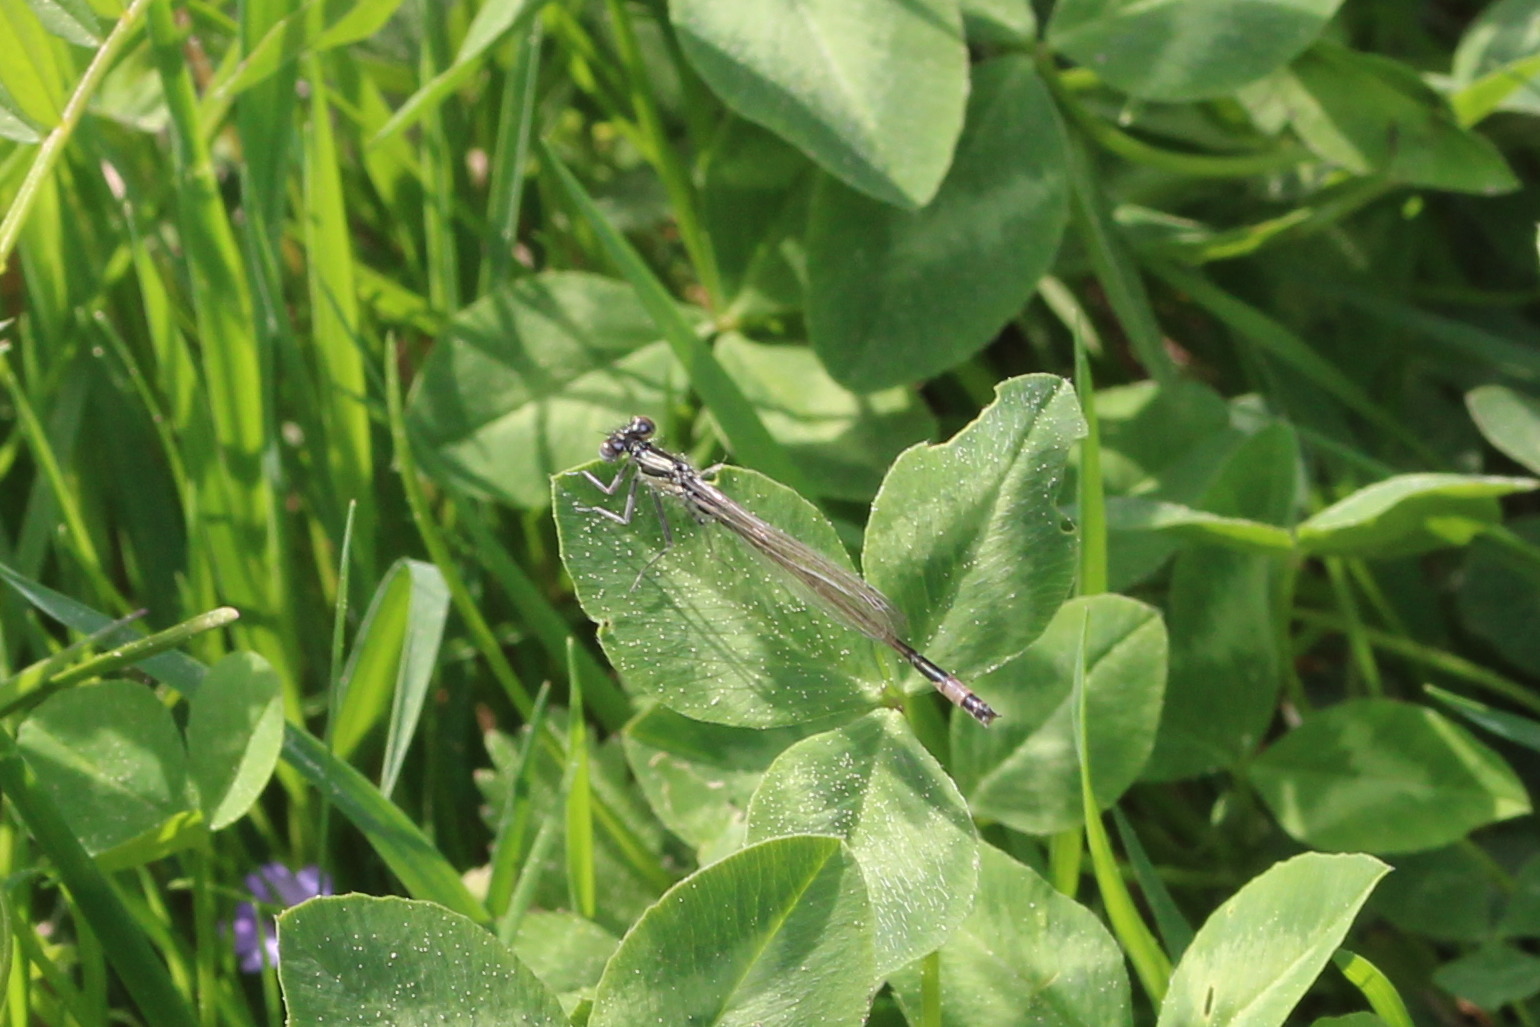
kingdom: Animalia
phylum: Arthropoda
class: Insecta
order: Odonata
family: Coenagrionidae
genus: Ischnura
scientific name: Ischnura elegans
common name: Blue-tailed damselfly
